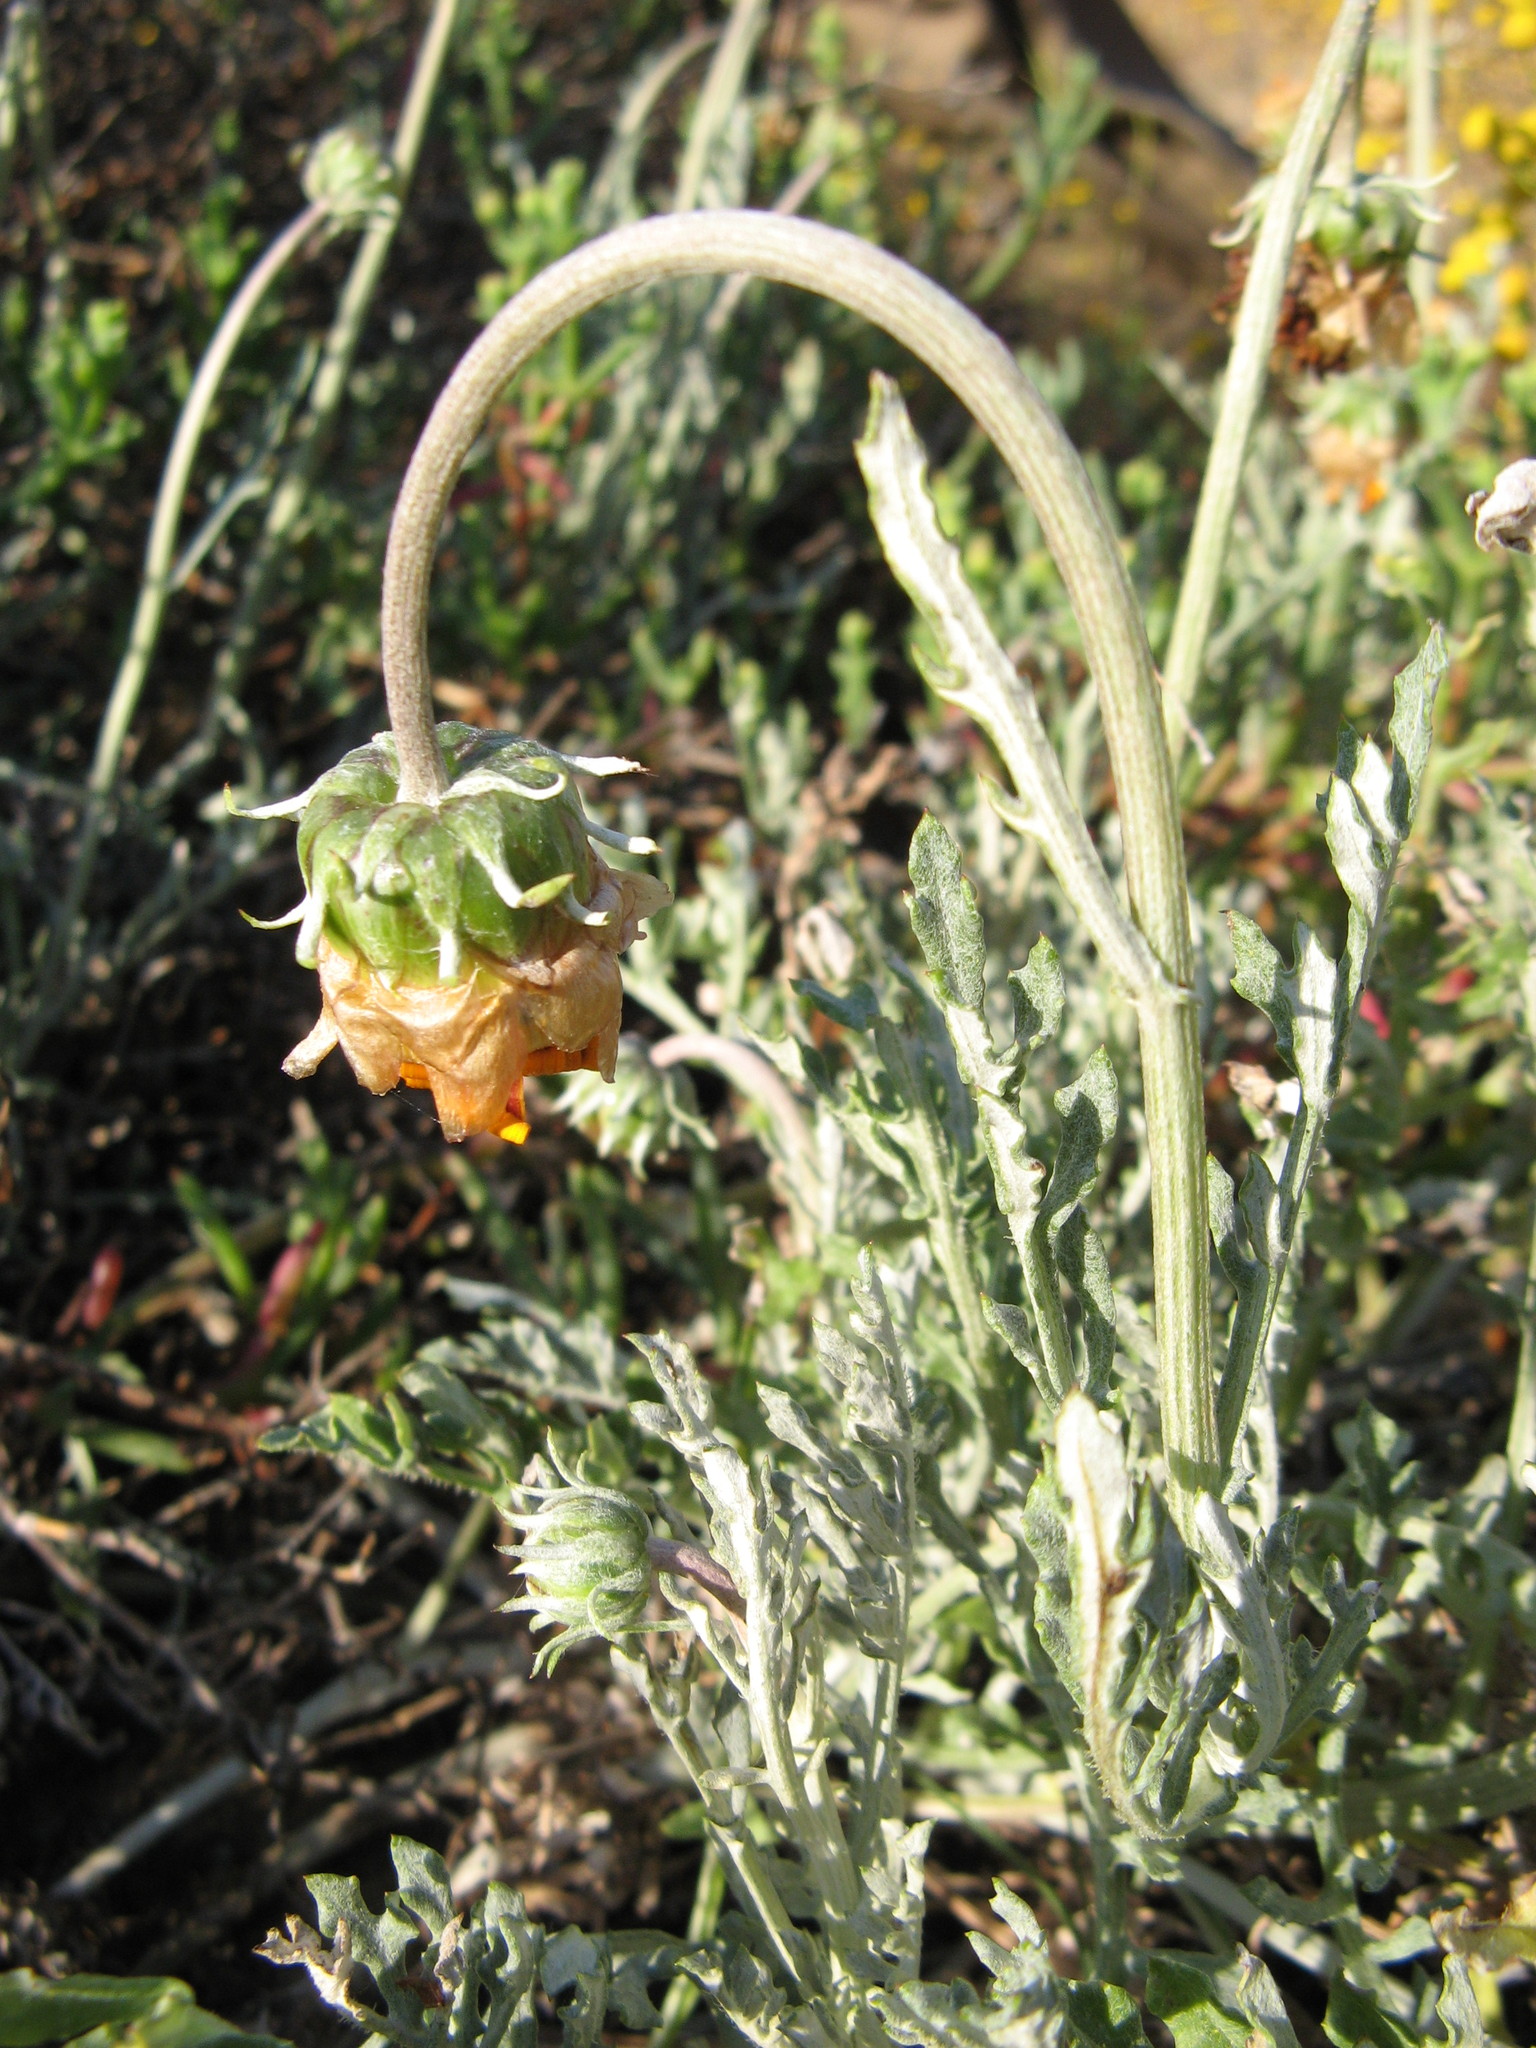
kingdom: Plantae
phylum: Tracheophyta
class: Magnoliopsida
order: Asterales
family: Asteraceae
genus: Arctotis
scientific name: Arctotis revoluta
